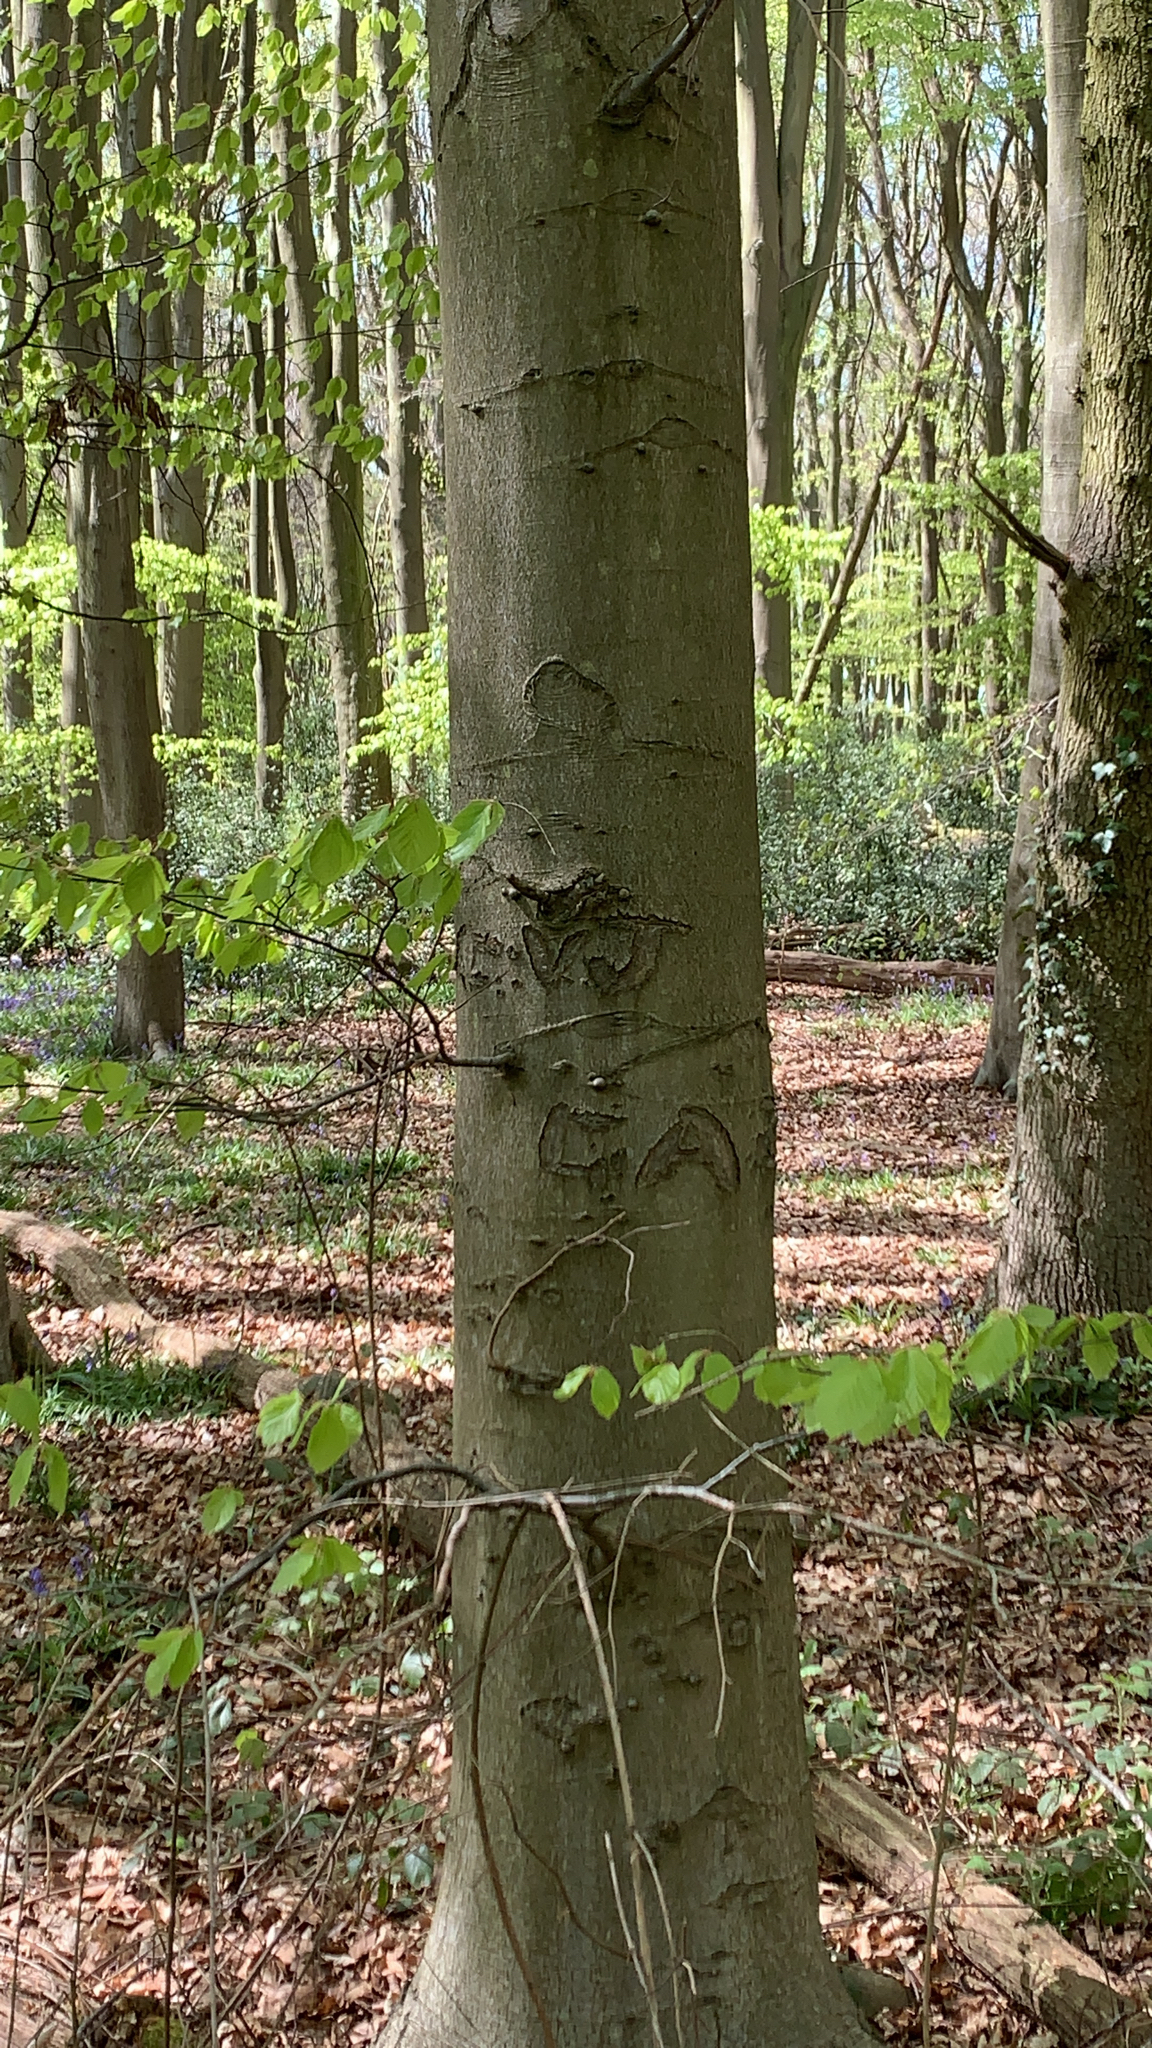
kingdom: Plantae
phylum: Tracheophyta
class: Magnoliopsida
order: Fagales
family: Fagaceae
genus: Fagus
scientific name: Fagus sylvatica
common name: Beech
